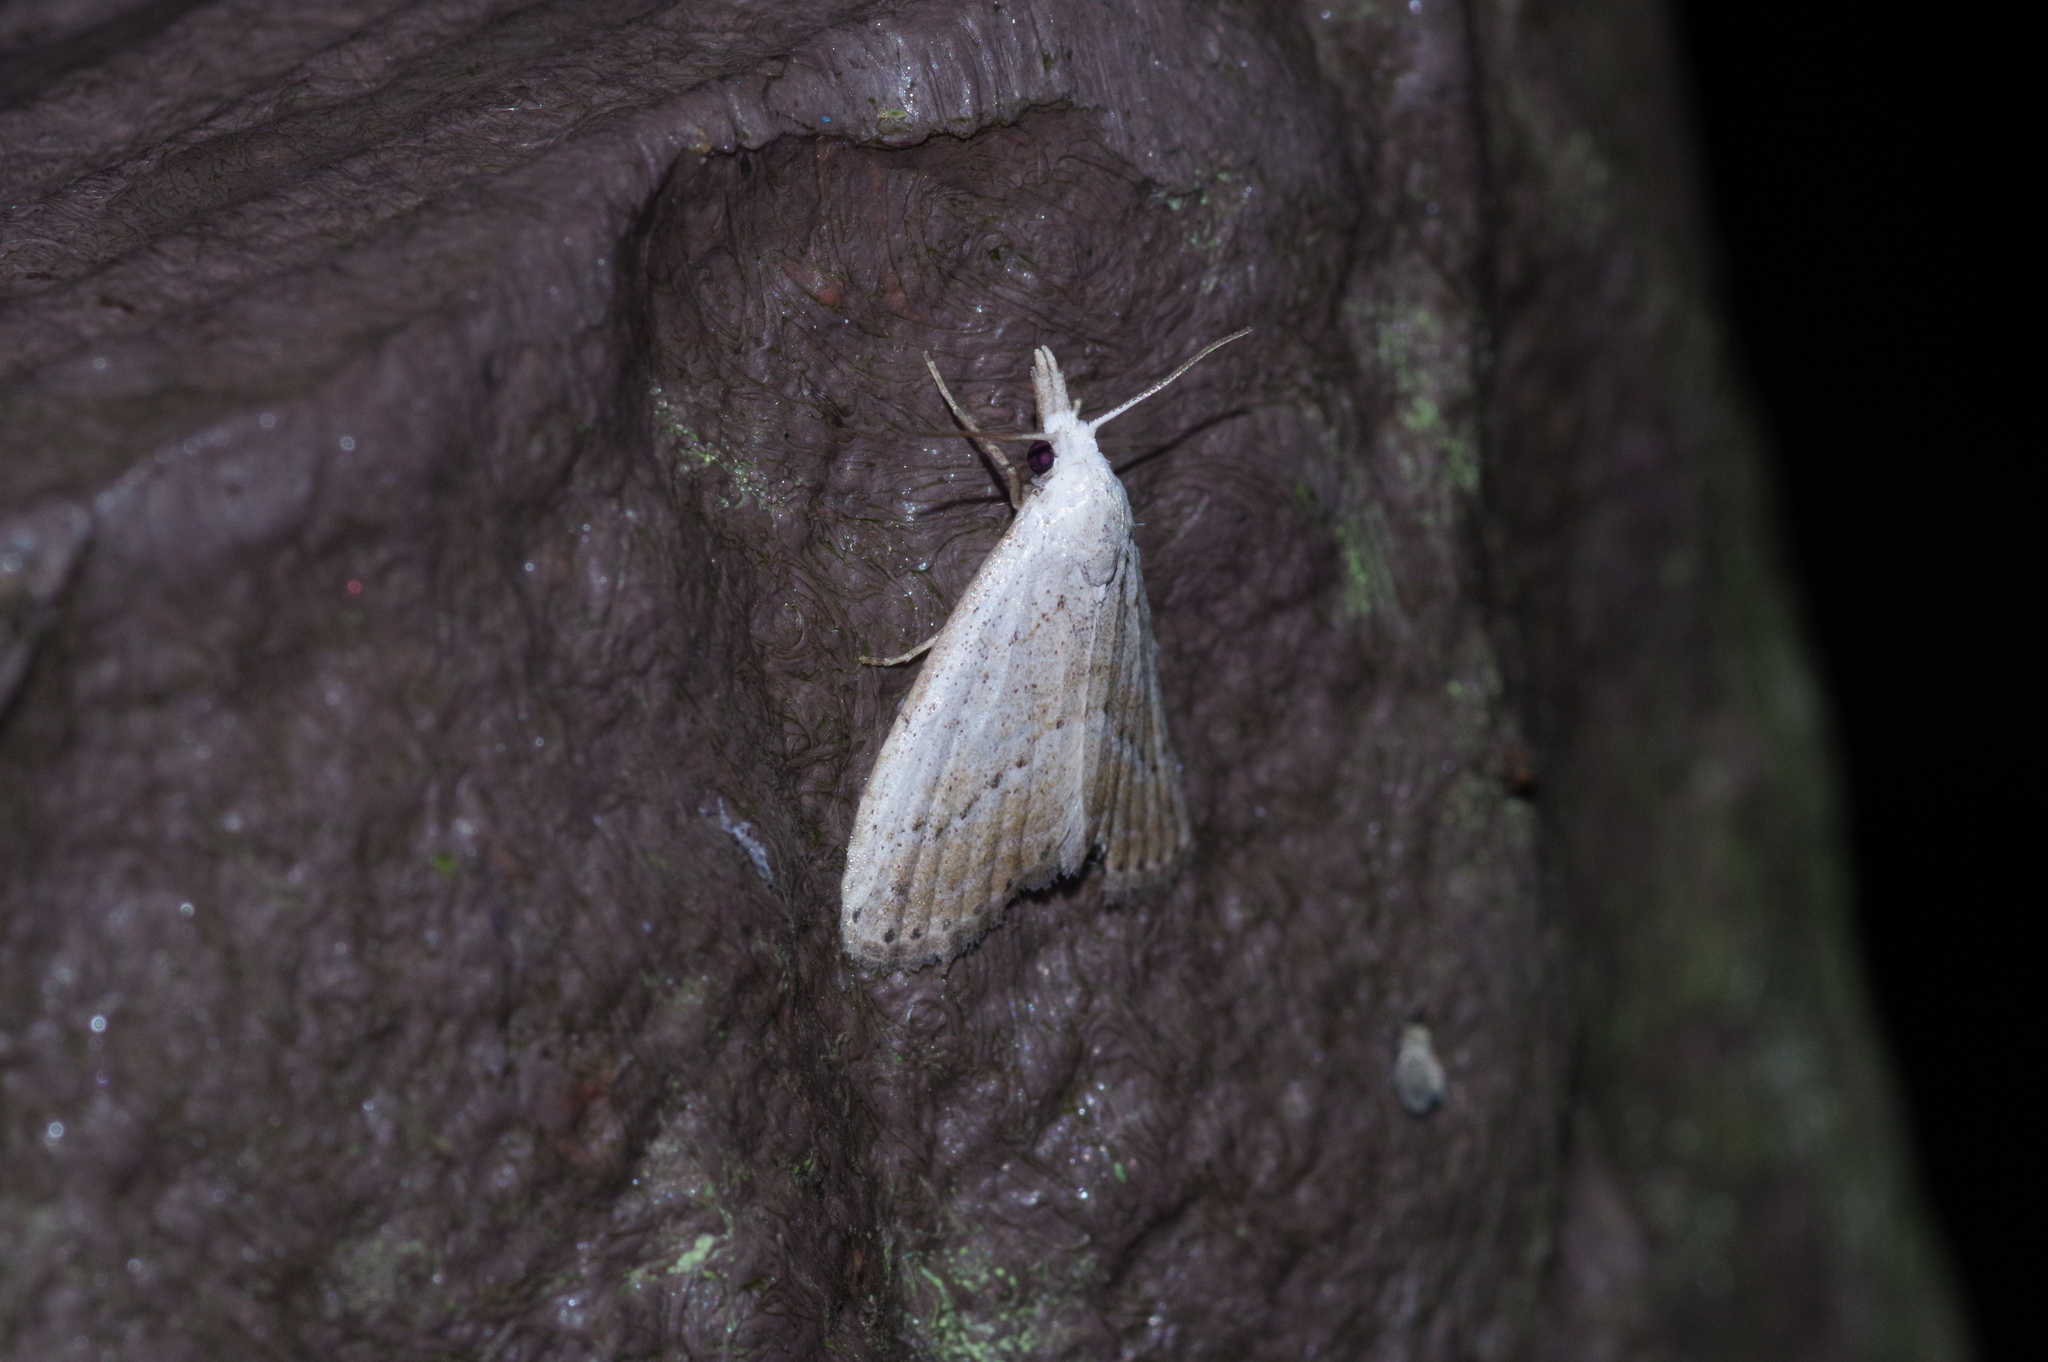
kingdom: Animalia
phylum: Arthropoda
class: Insecta
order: Lepidoptera
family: Nolidae
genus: Meganola
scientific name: Meganola brunellus
